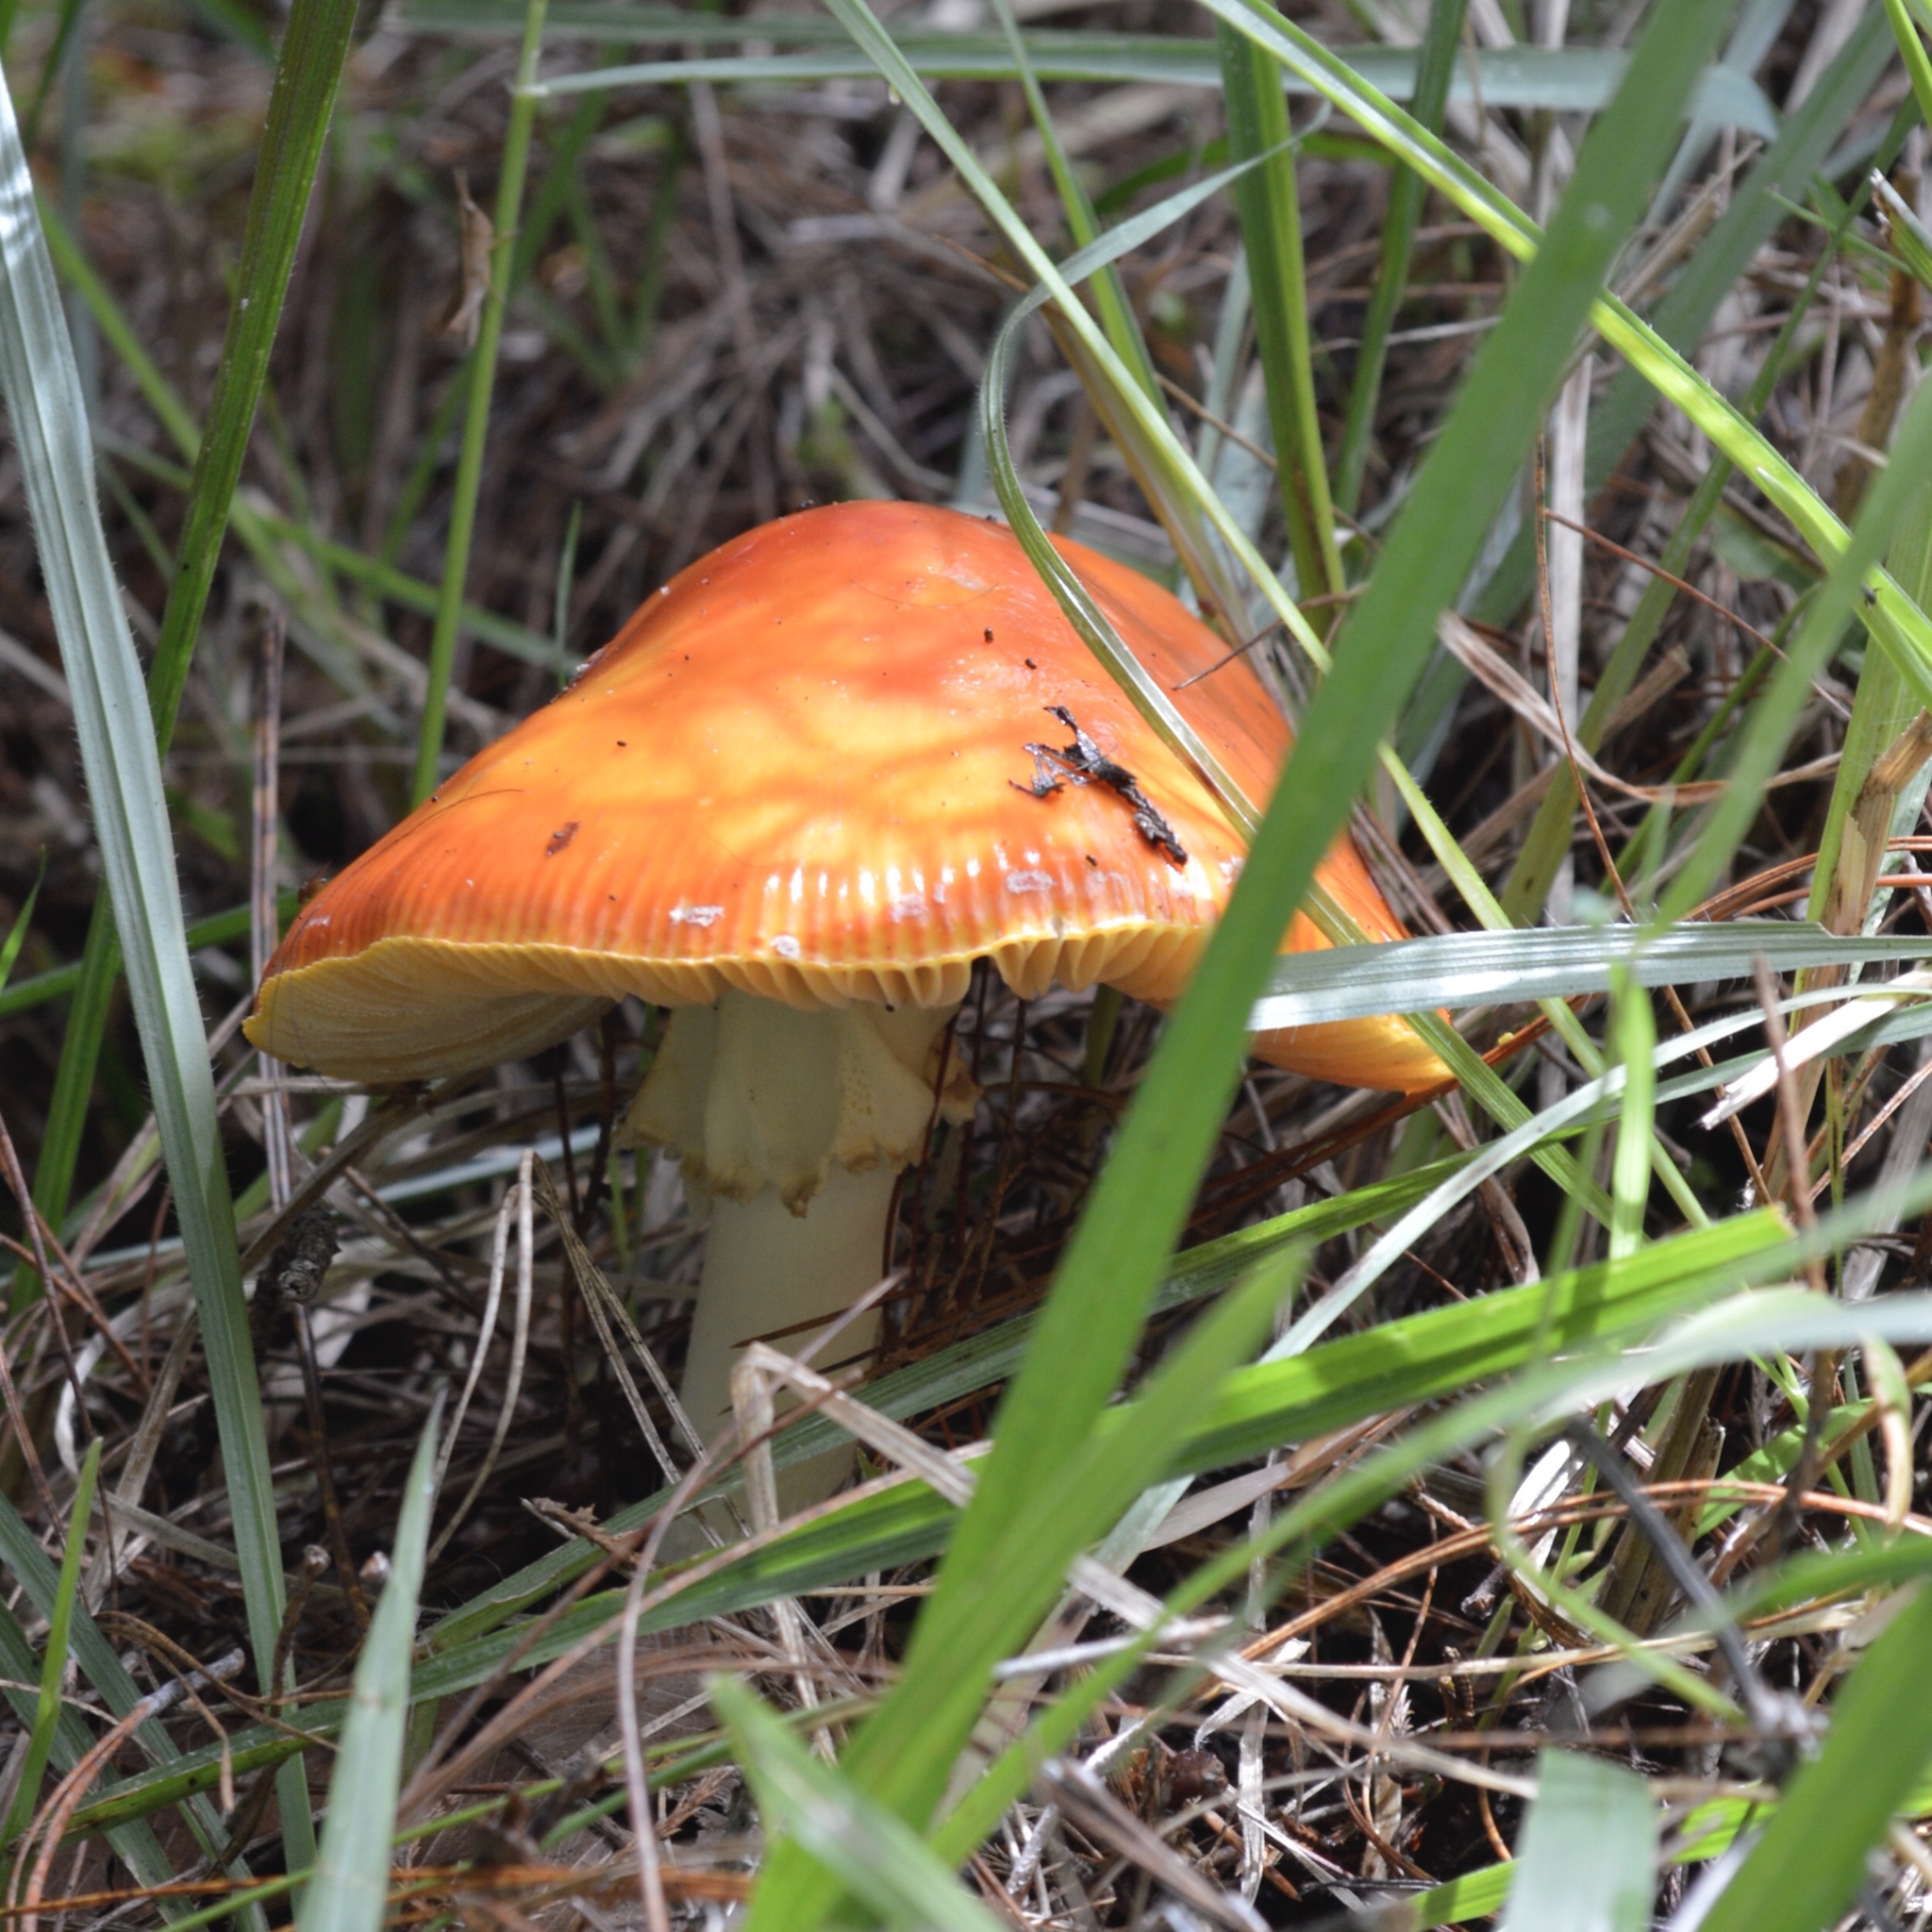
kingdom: Fungi
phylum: Basidiomycota
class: Agaricomycetes
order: Agaricales
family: Amanitaceae
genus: Amanita
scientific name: Amanita muscaria
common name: Fly agaric
